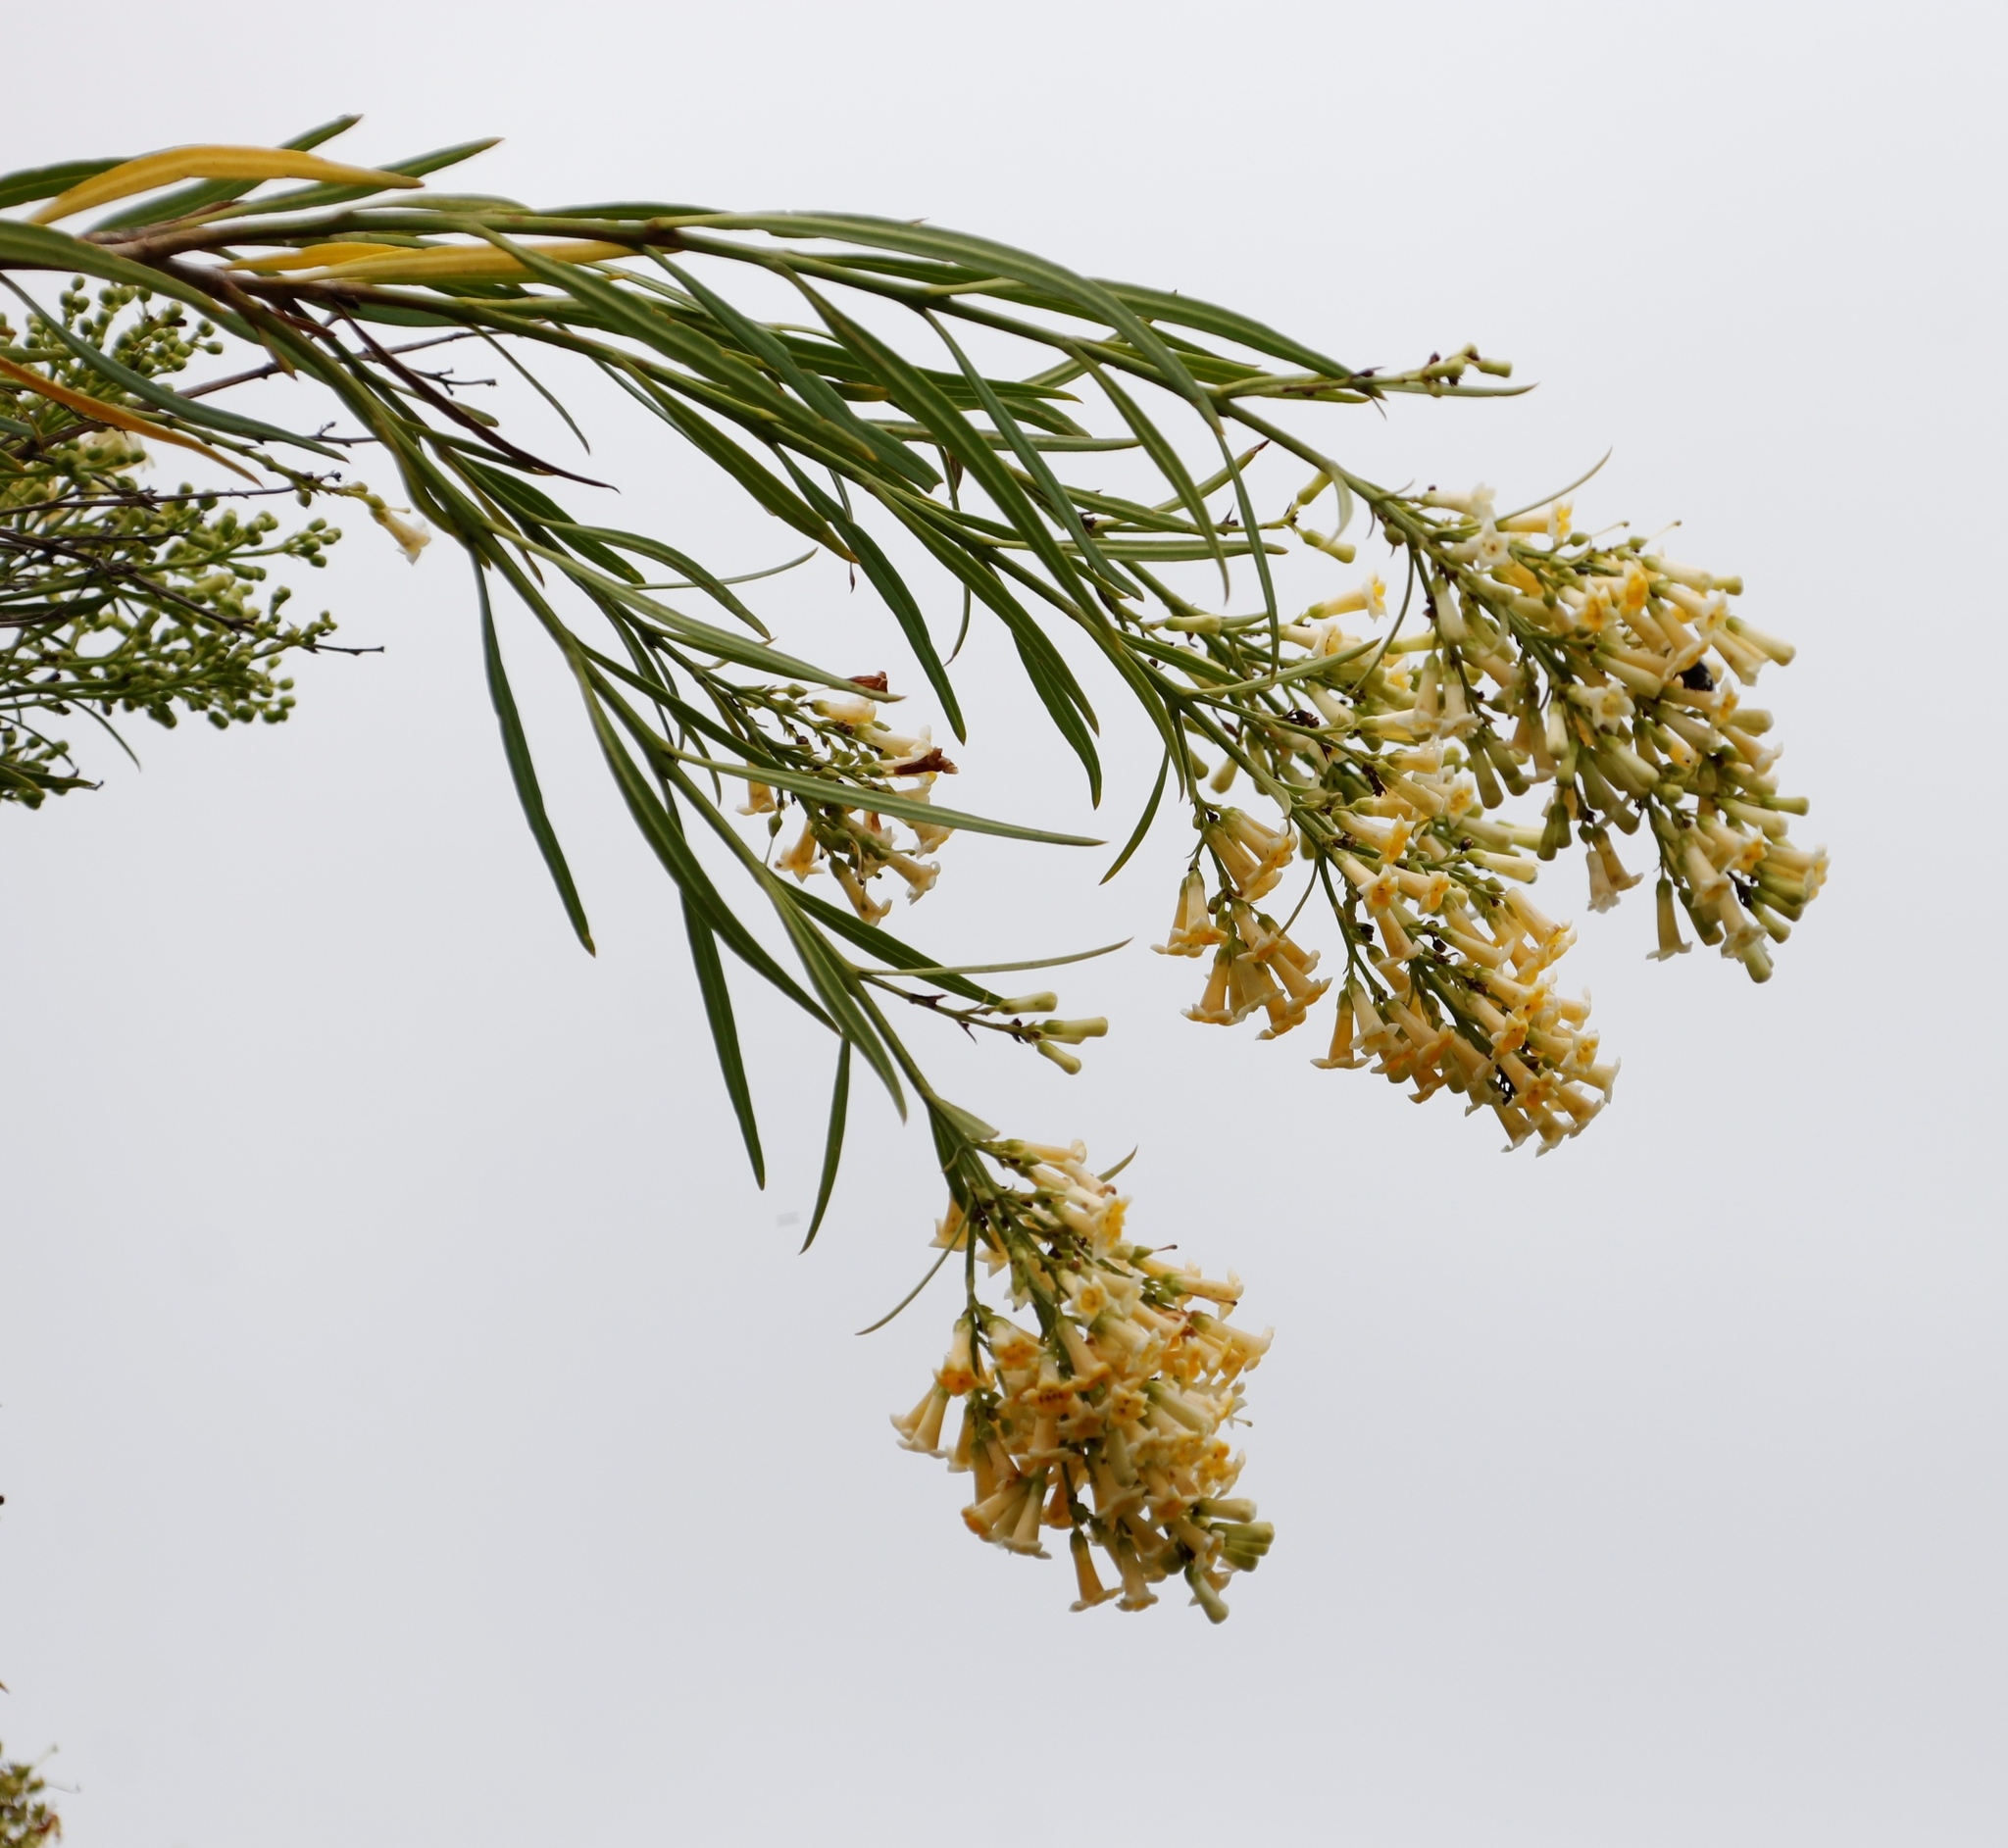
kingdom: Plantae
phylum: Tracheophyta
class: Magnoliopsida
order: Lamiales
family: Scrophulariaceae
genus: Freylinia
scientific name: Freylinia lanceolata
